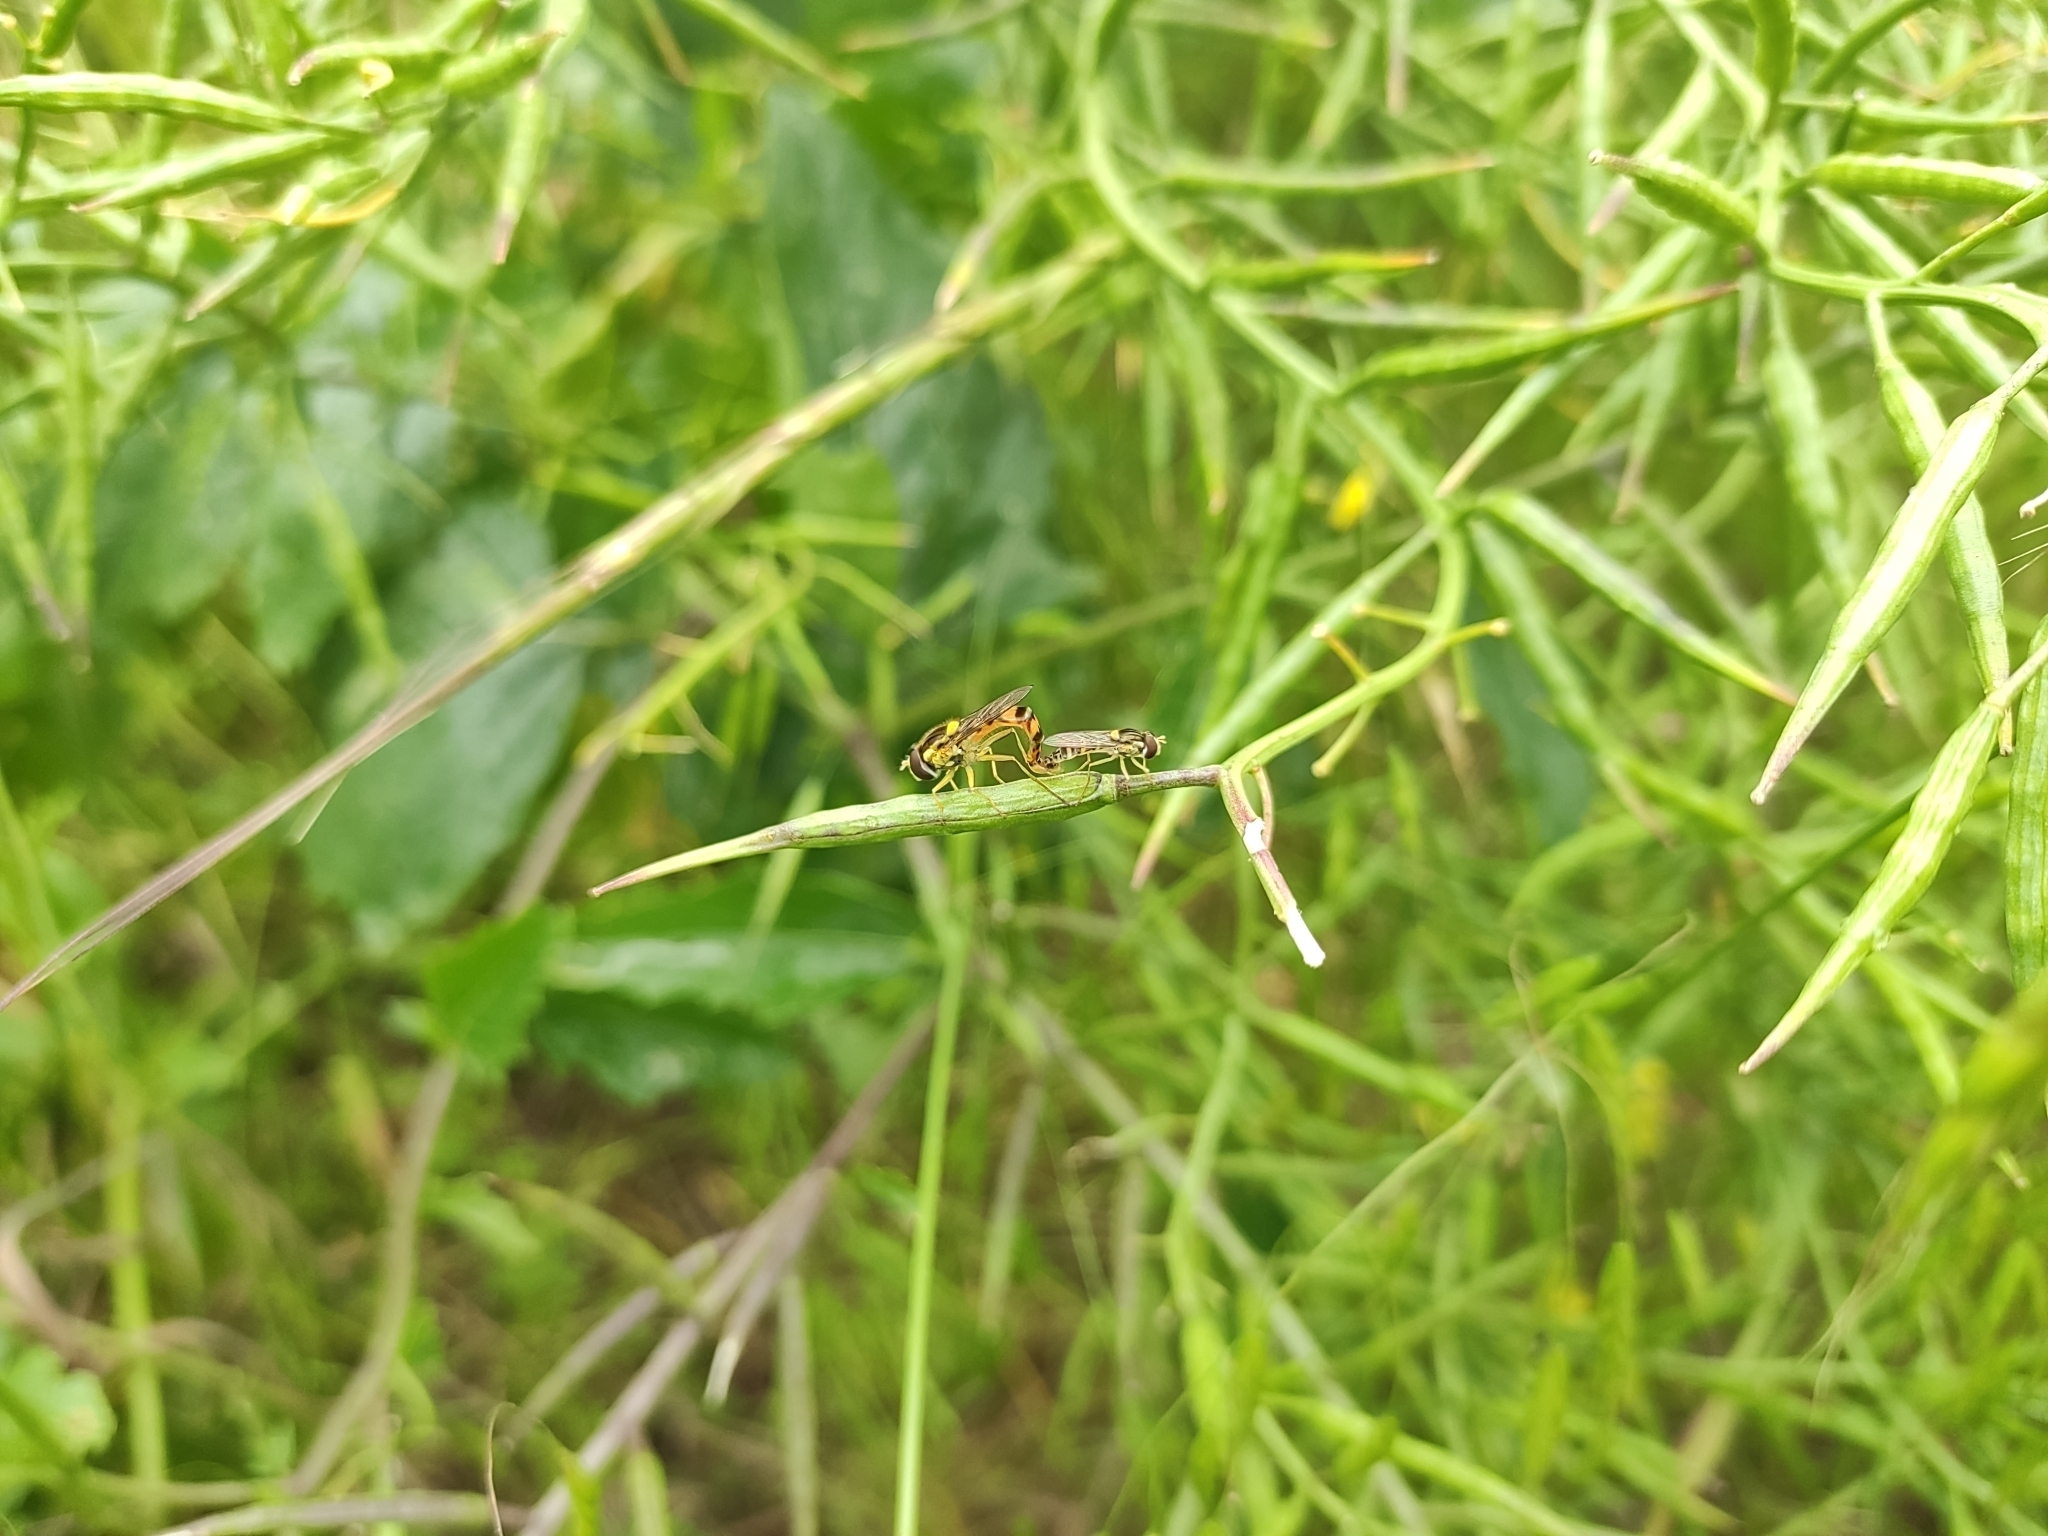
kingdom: Animalia
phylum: Arthropoda
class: Insecta
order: Diptera
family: Syrphidae
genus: Sphaerophoria
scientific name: Sphaerophoria scripta
